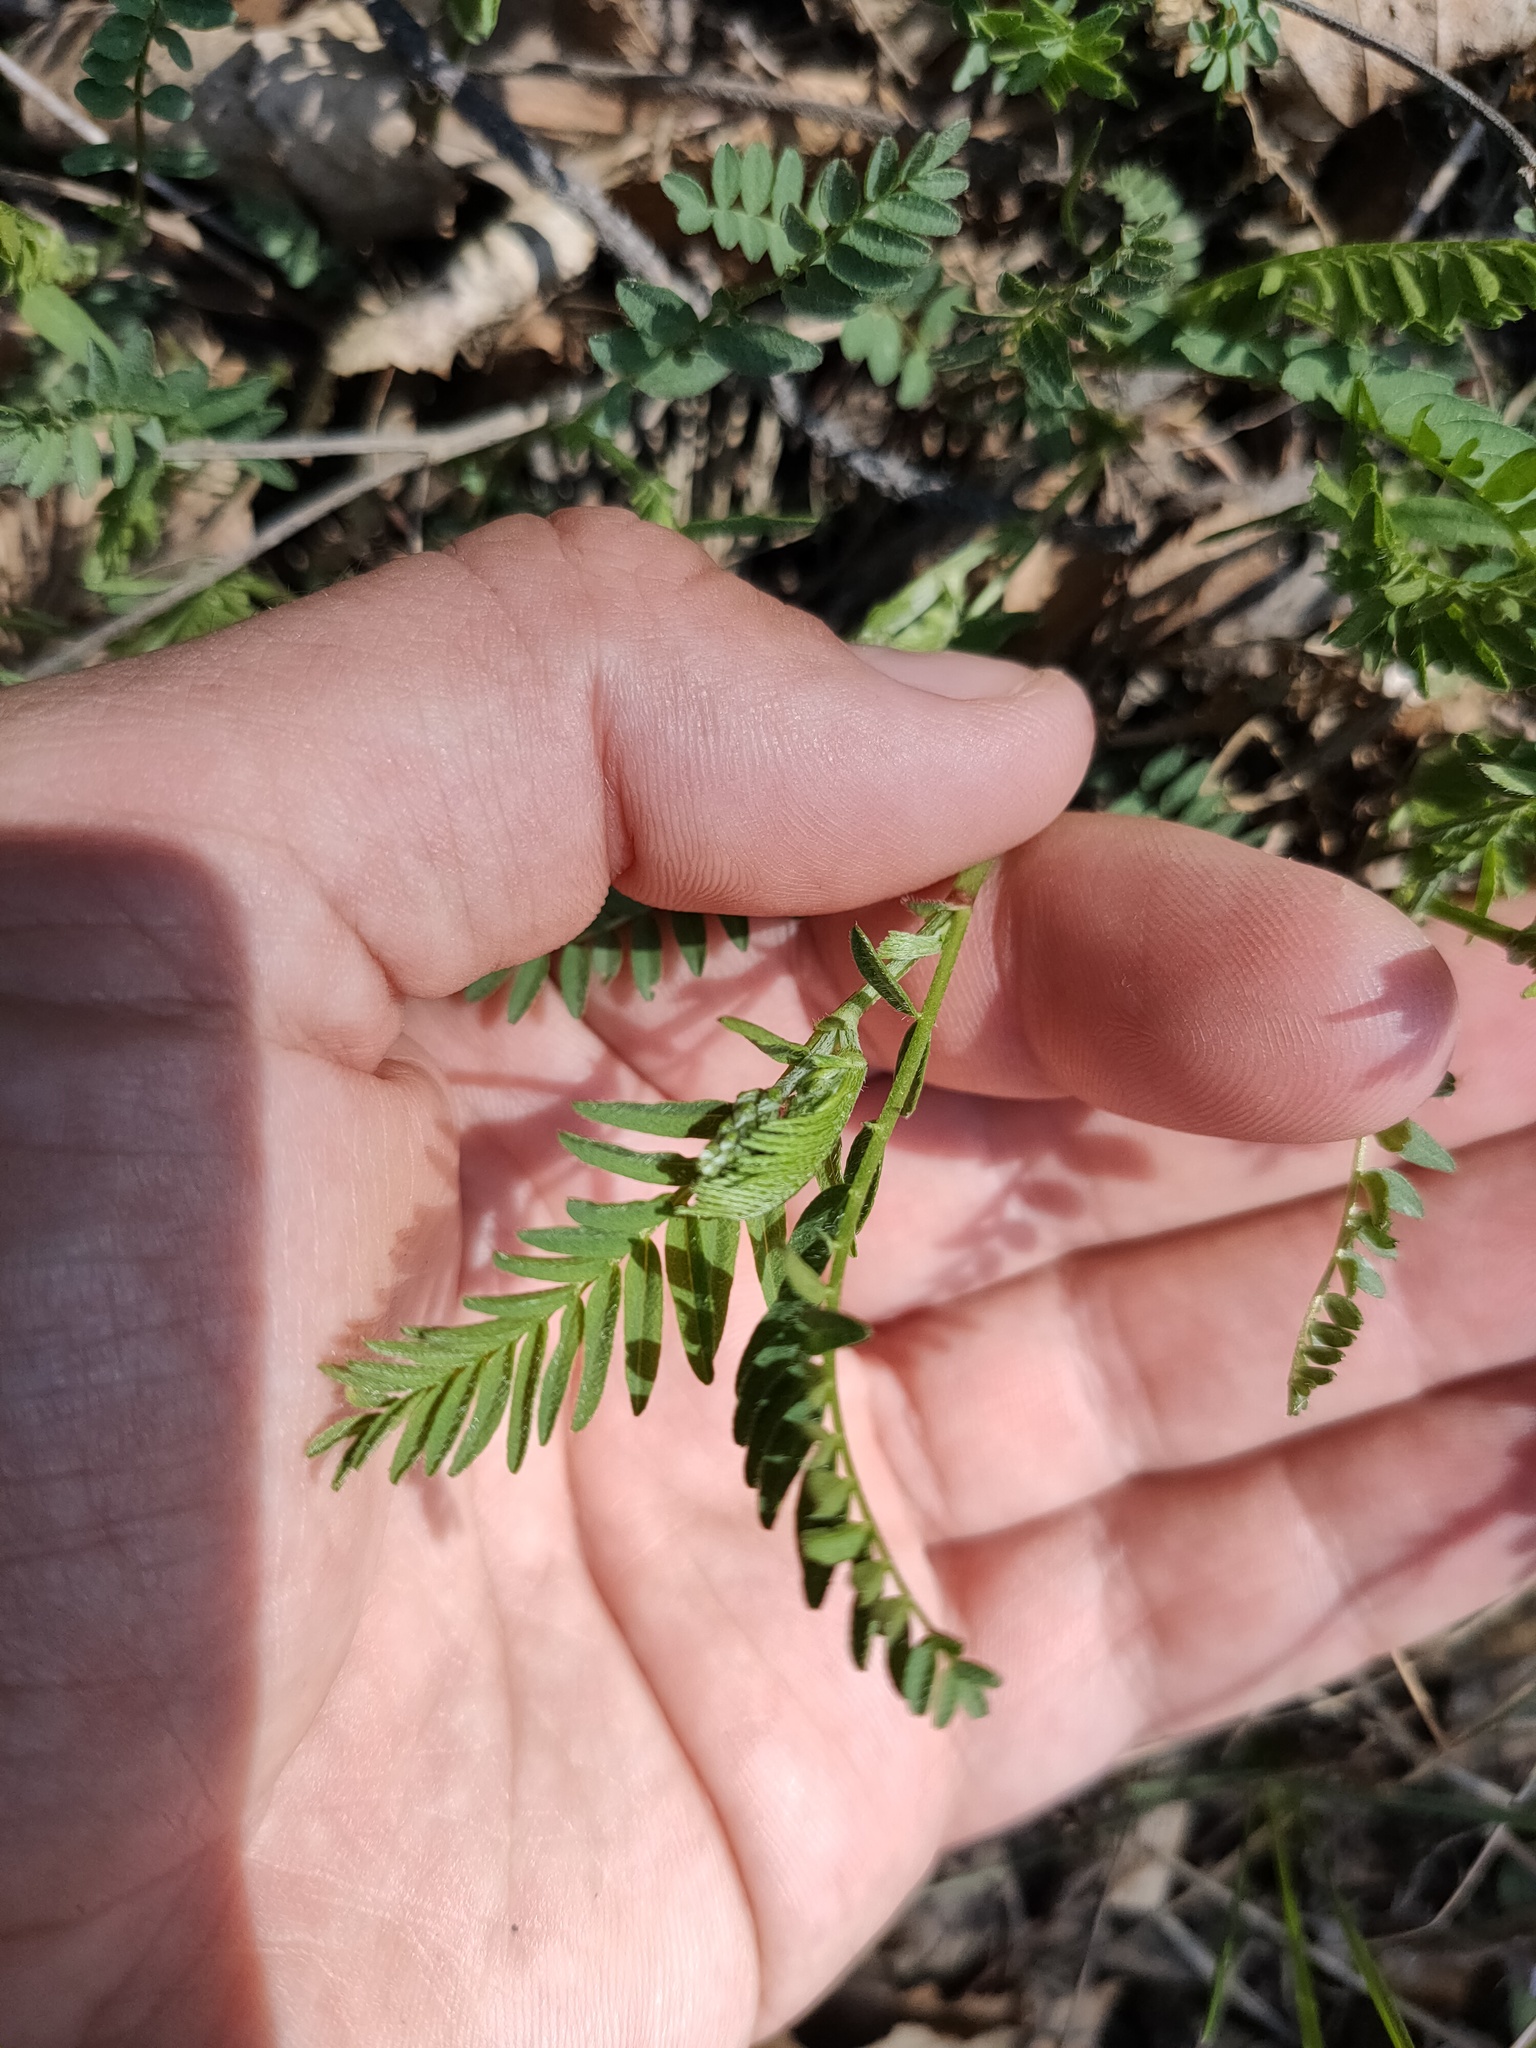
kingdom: Plantae
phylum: Tracheophyta
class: Magnoliopsida
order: Fabales
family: Fabaceae
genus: Astragalus
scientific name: Astragalus danicus
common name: Purple milk-vetch
